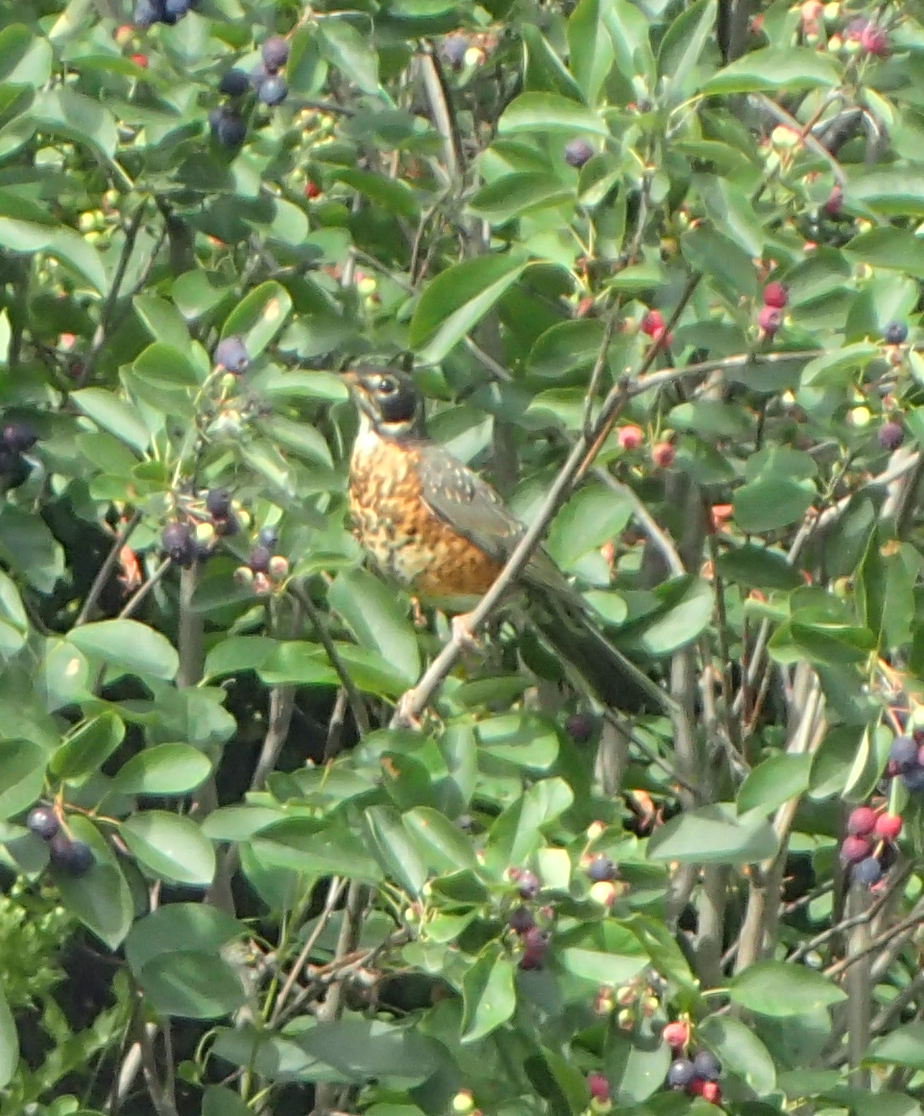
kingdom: Animalia
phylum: Chordata
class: Aves
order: Passeriformes
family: Turdidae
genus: Turdus
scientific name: Turdus migratorius
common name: American robin
